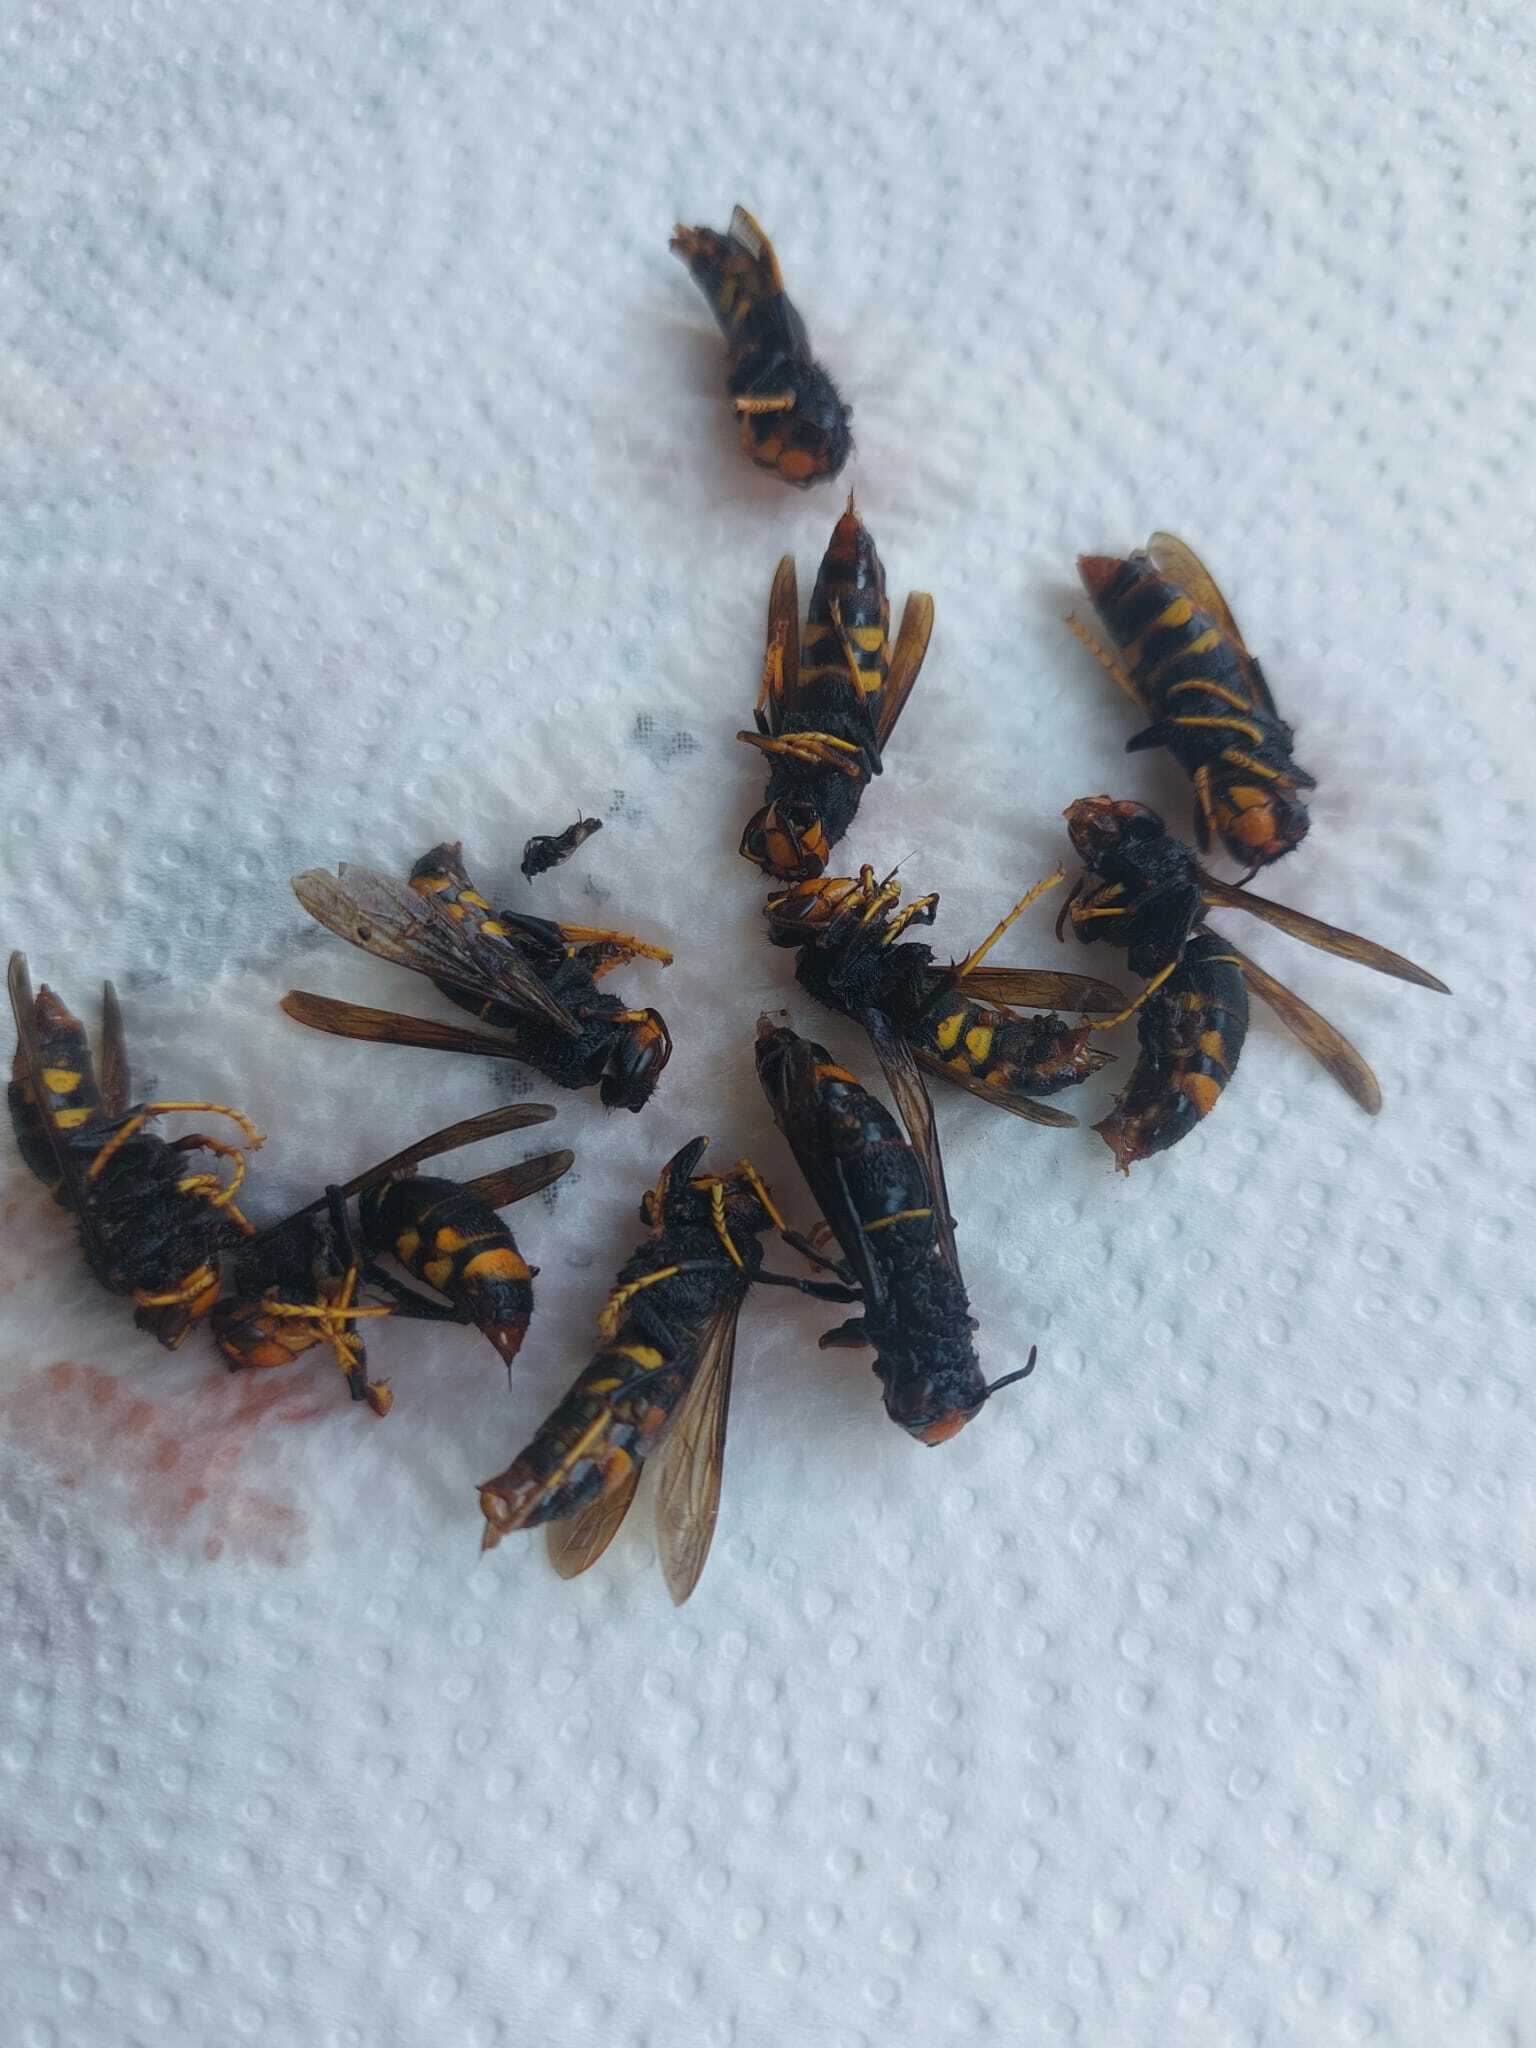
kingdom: Animalia
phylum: Arthropoda
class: Insecta
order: Hymenoptera
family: Vespidae
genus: Vespa
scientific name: Vespa velutina
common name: Asian hornet
